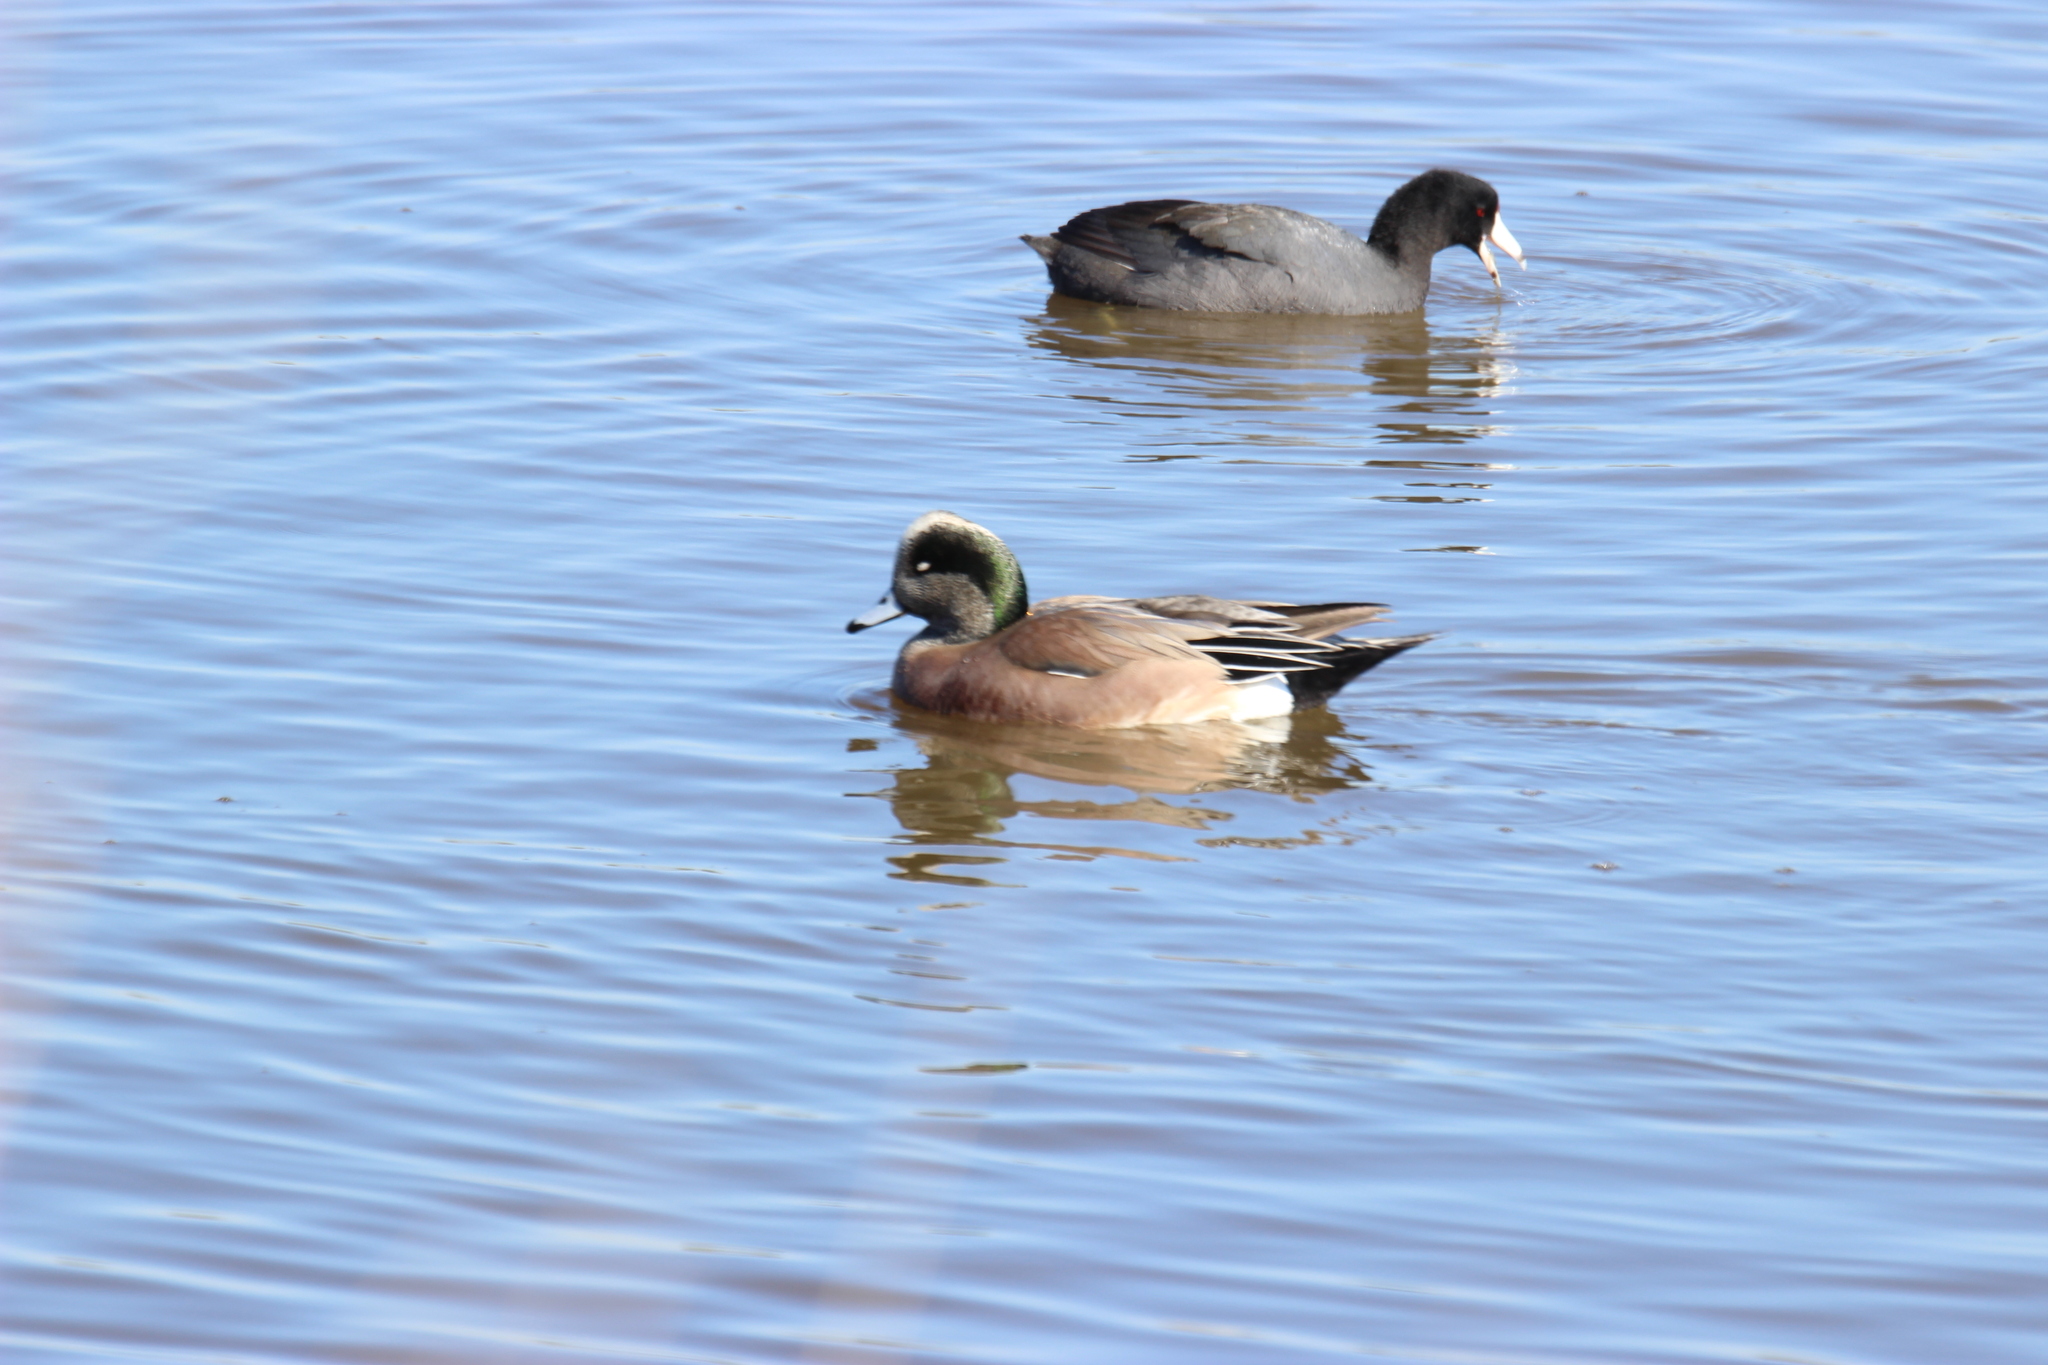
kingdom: Animalia
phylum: Chordata
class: Aves
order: Anseriformes
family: Anatidae
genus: Mareca
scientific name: Mareca americana
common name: American wigeon
